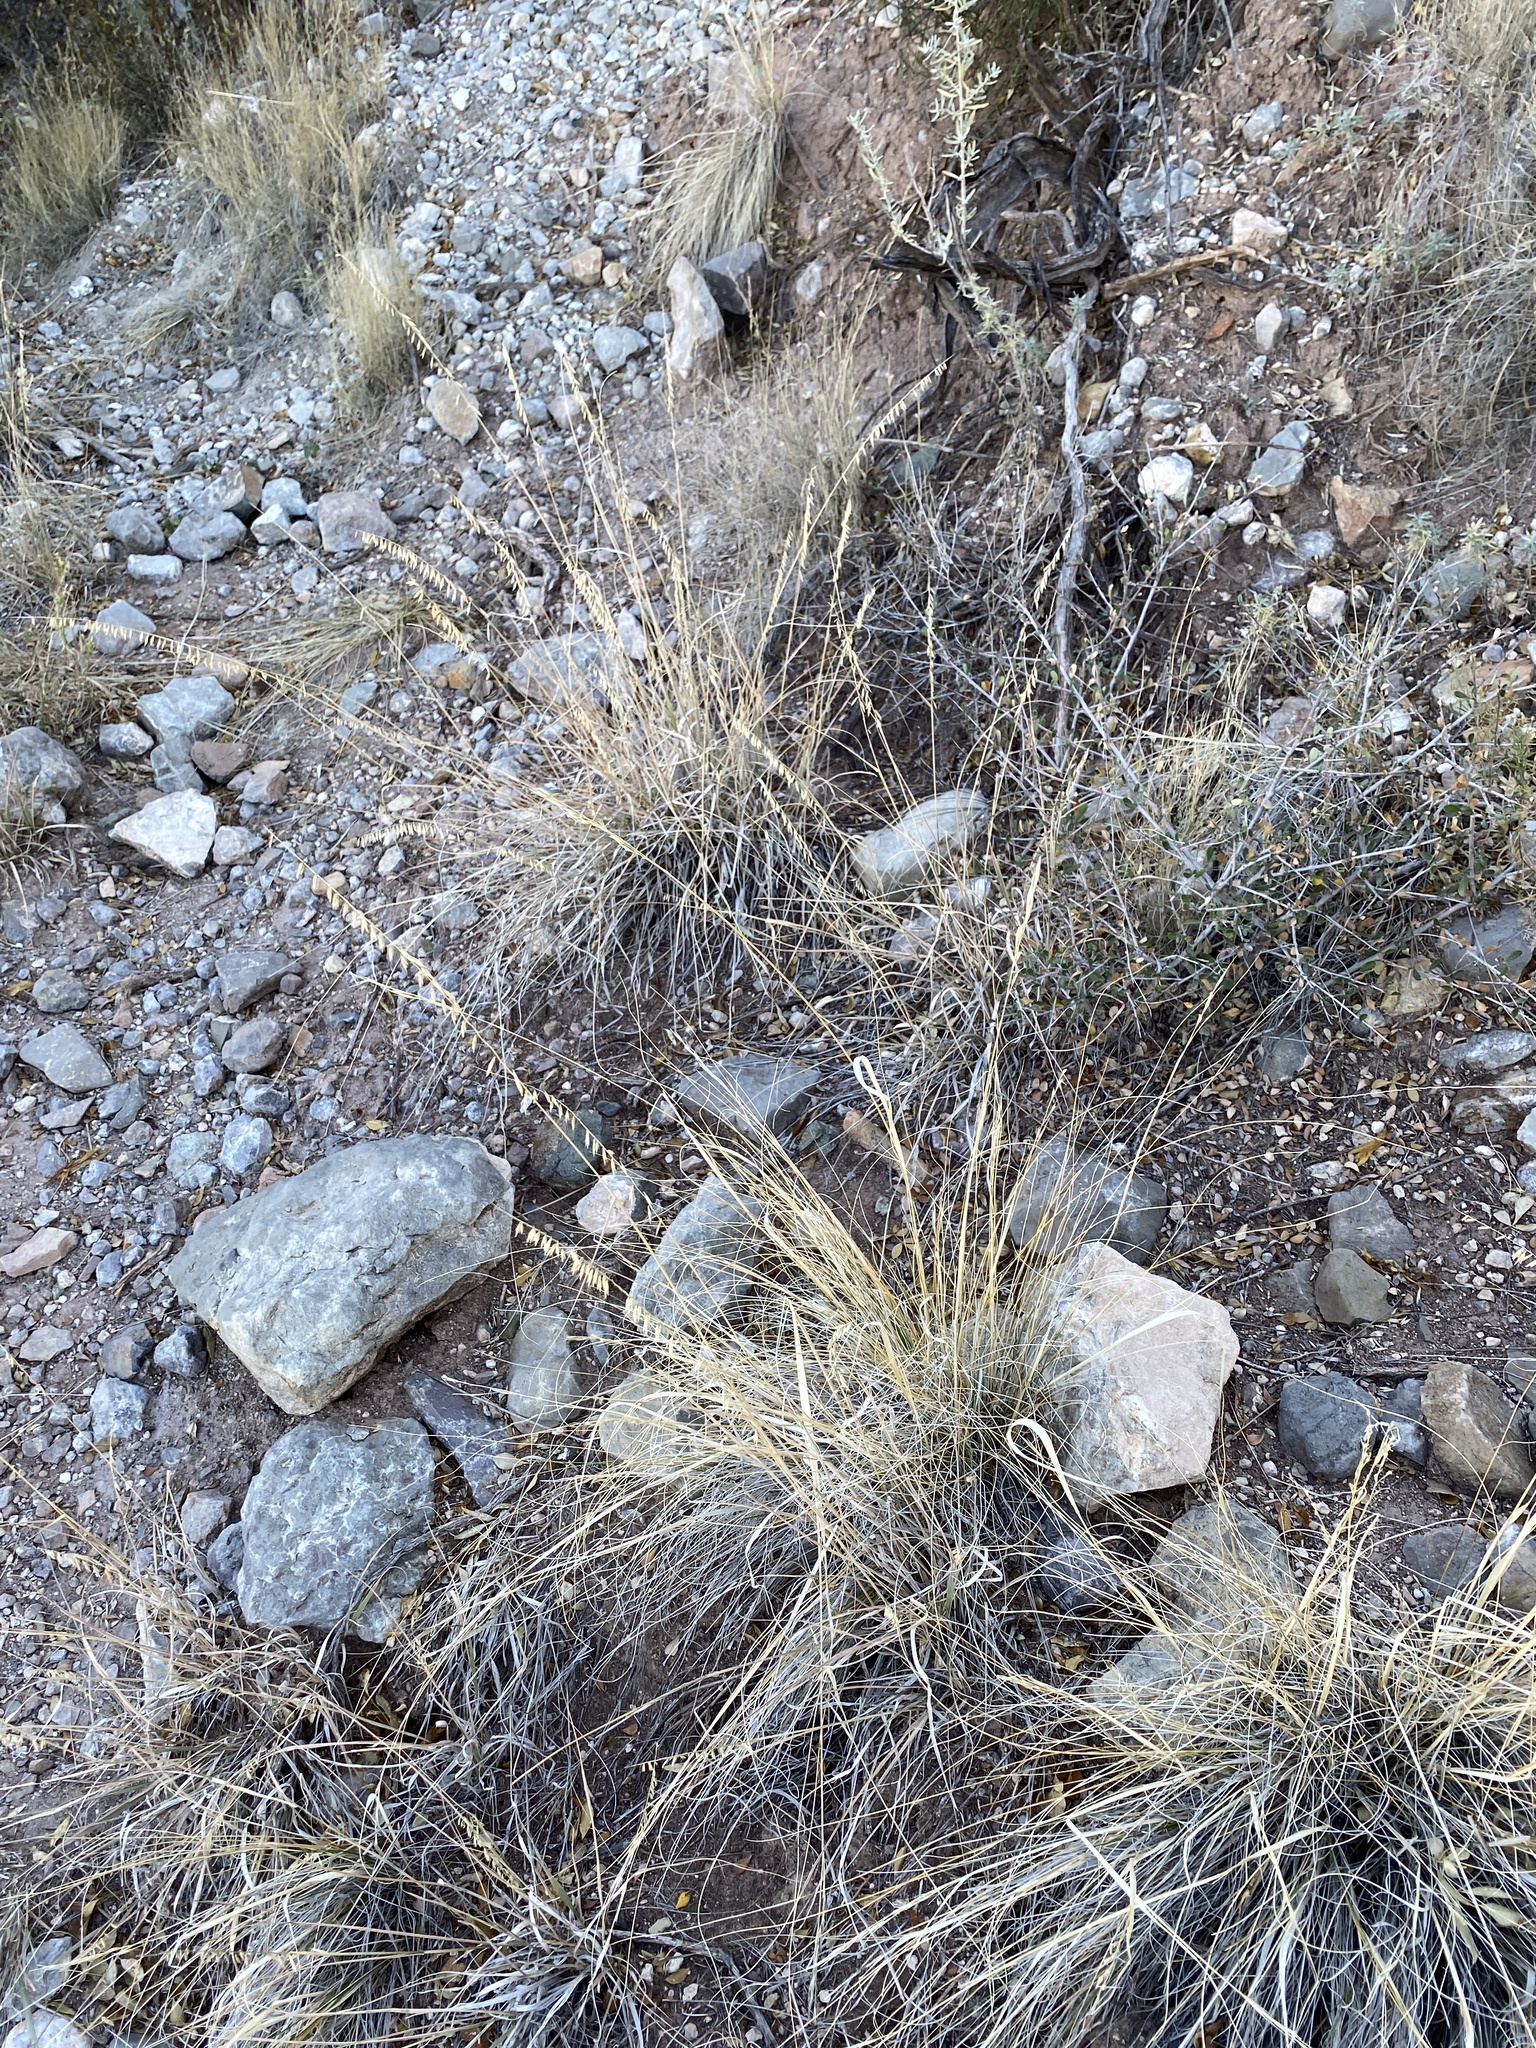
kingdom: Plantae
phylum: Tracheophyta
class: Liliopsida
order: Poales
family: Poaceae
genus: Bouteloua
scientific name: Bouteloua curtipendula
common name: Side-oats grama
